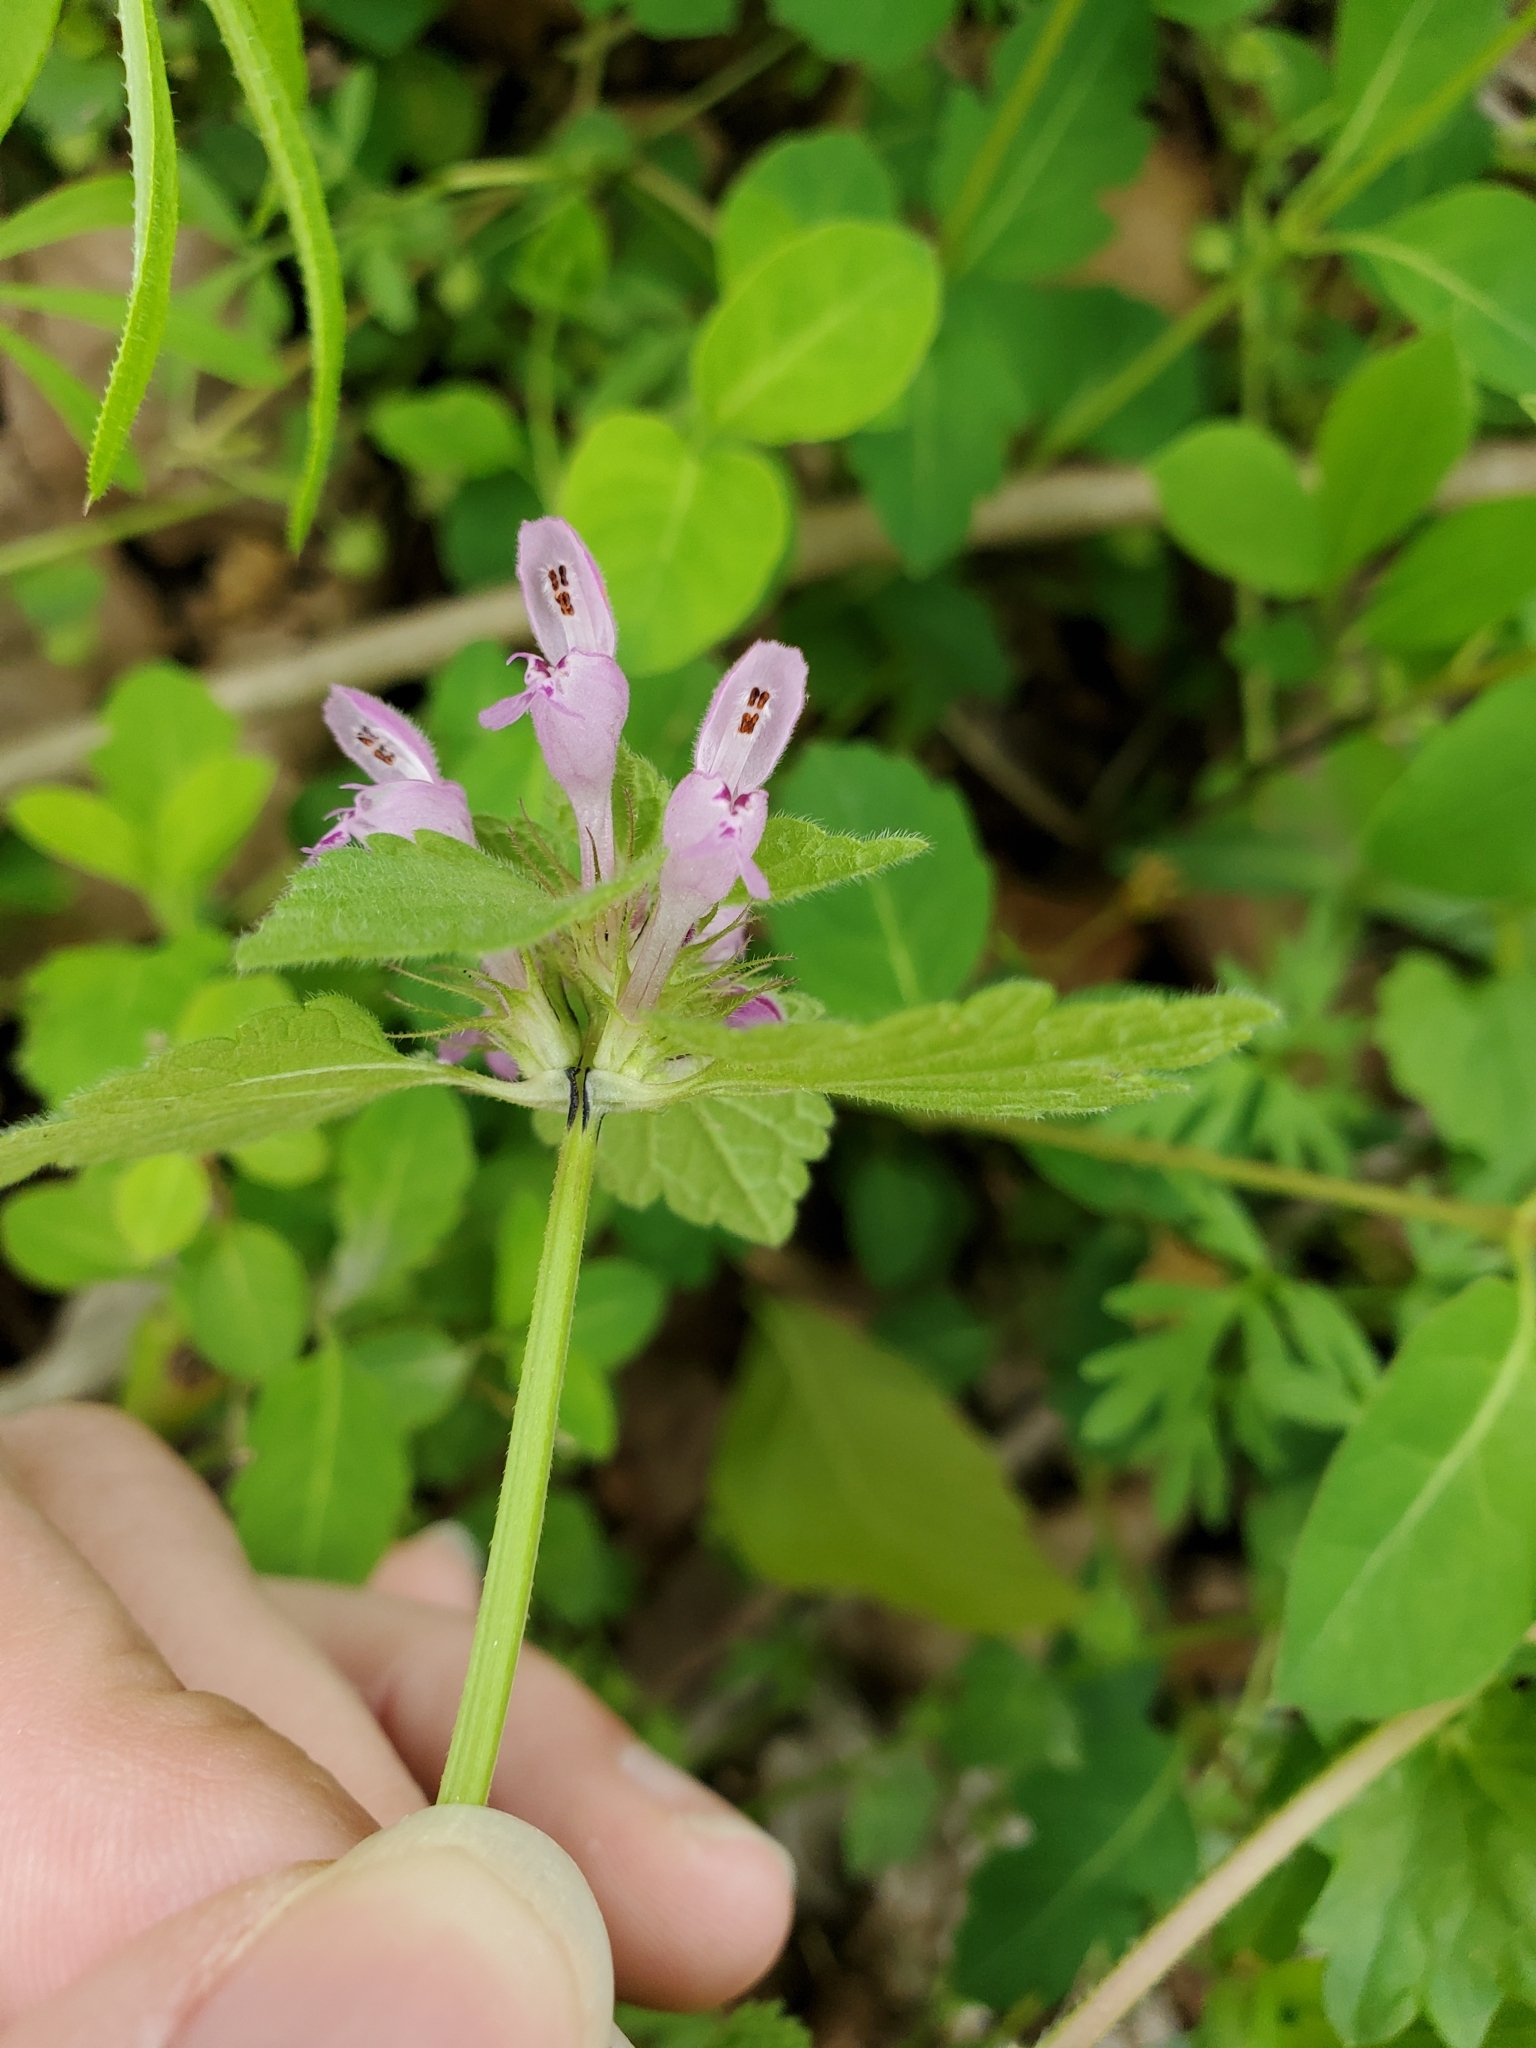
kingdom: Plantae
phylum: Tracheophyta
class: Magnoliopsida
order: Lamiales
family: Lamiaceae
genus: Lamium
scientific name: Lamium amplexicaule
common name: Henbit dead-nettle
